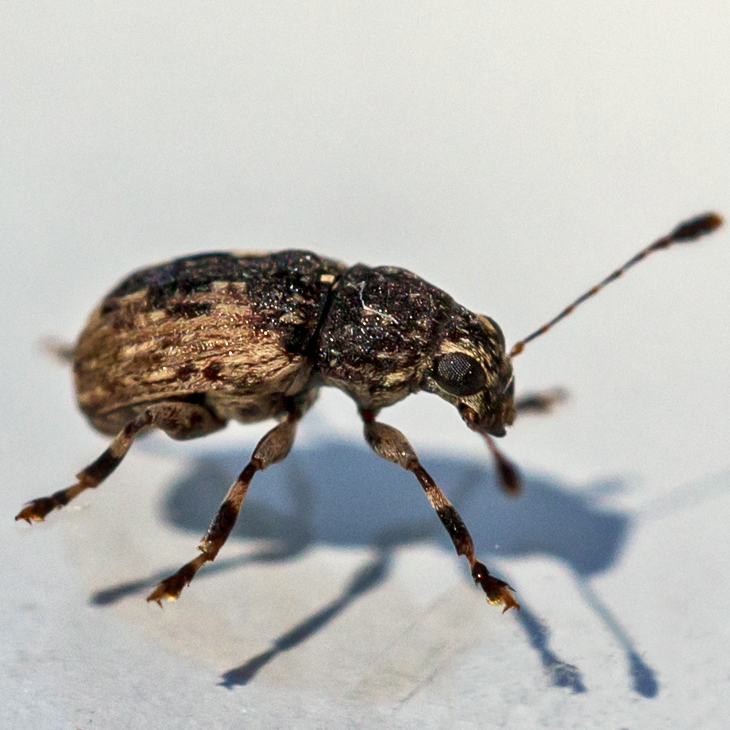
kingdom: Animalia
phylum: Arthropoda
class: Insecta
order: Coleoptera
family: Anthribidae
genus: Piesocorynus
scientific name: Piesocorynus lateralis
